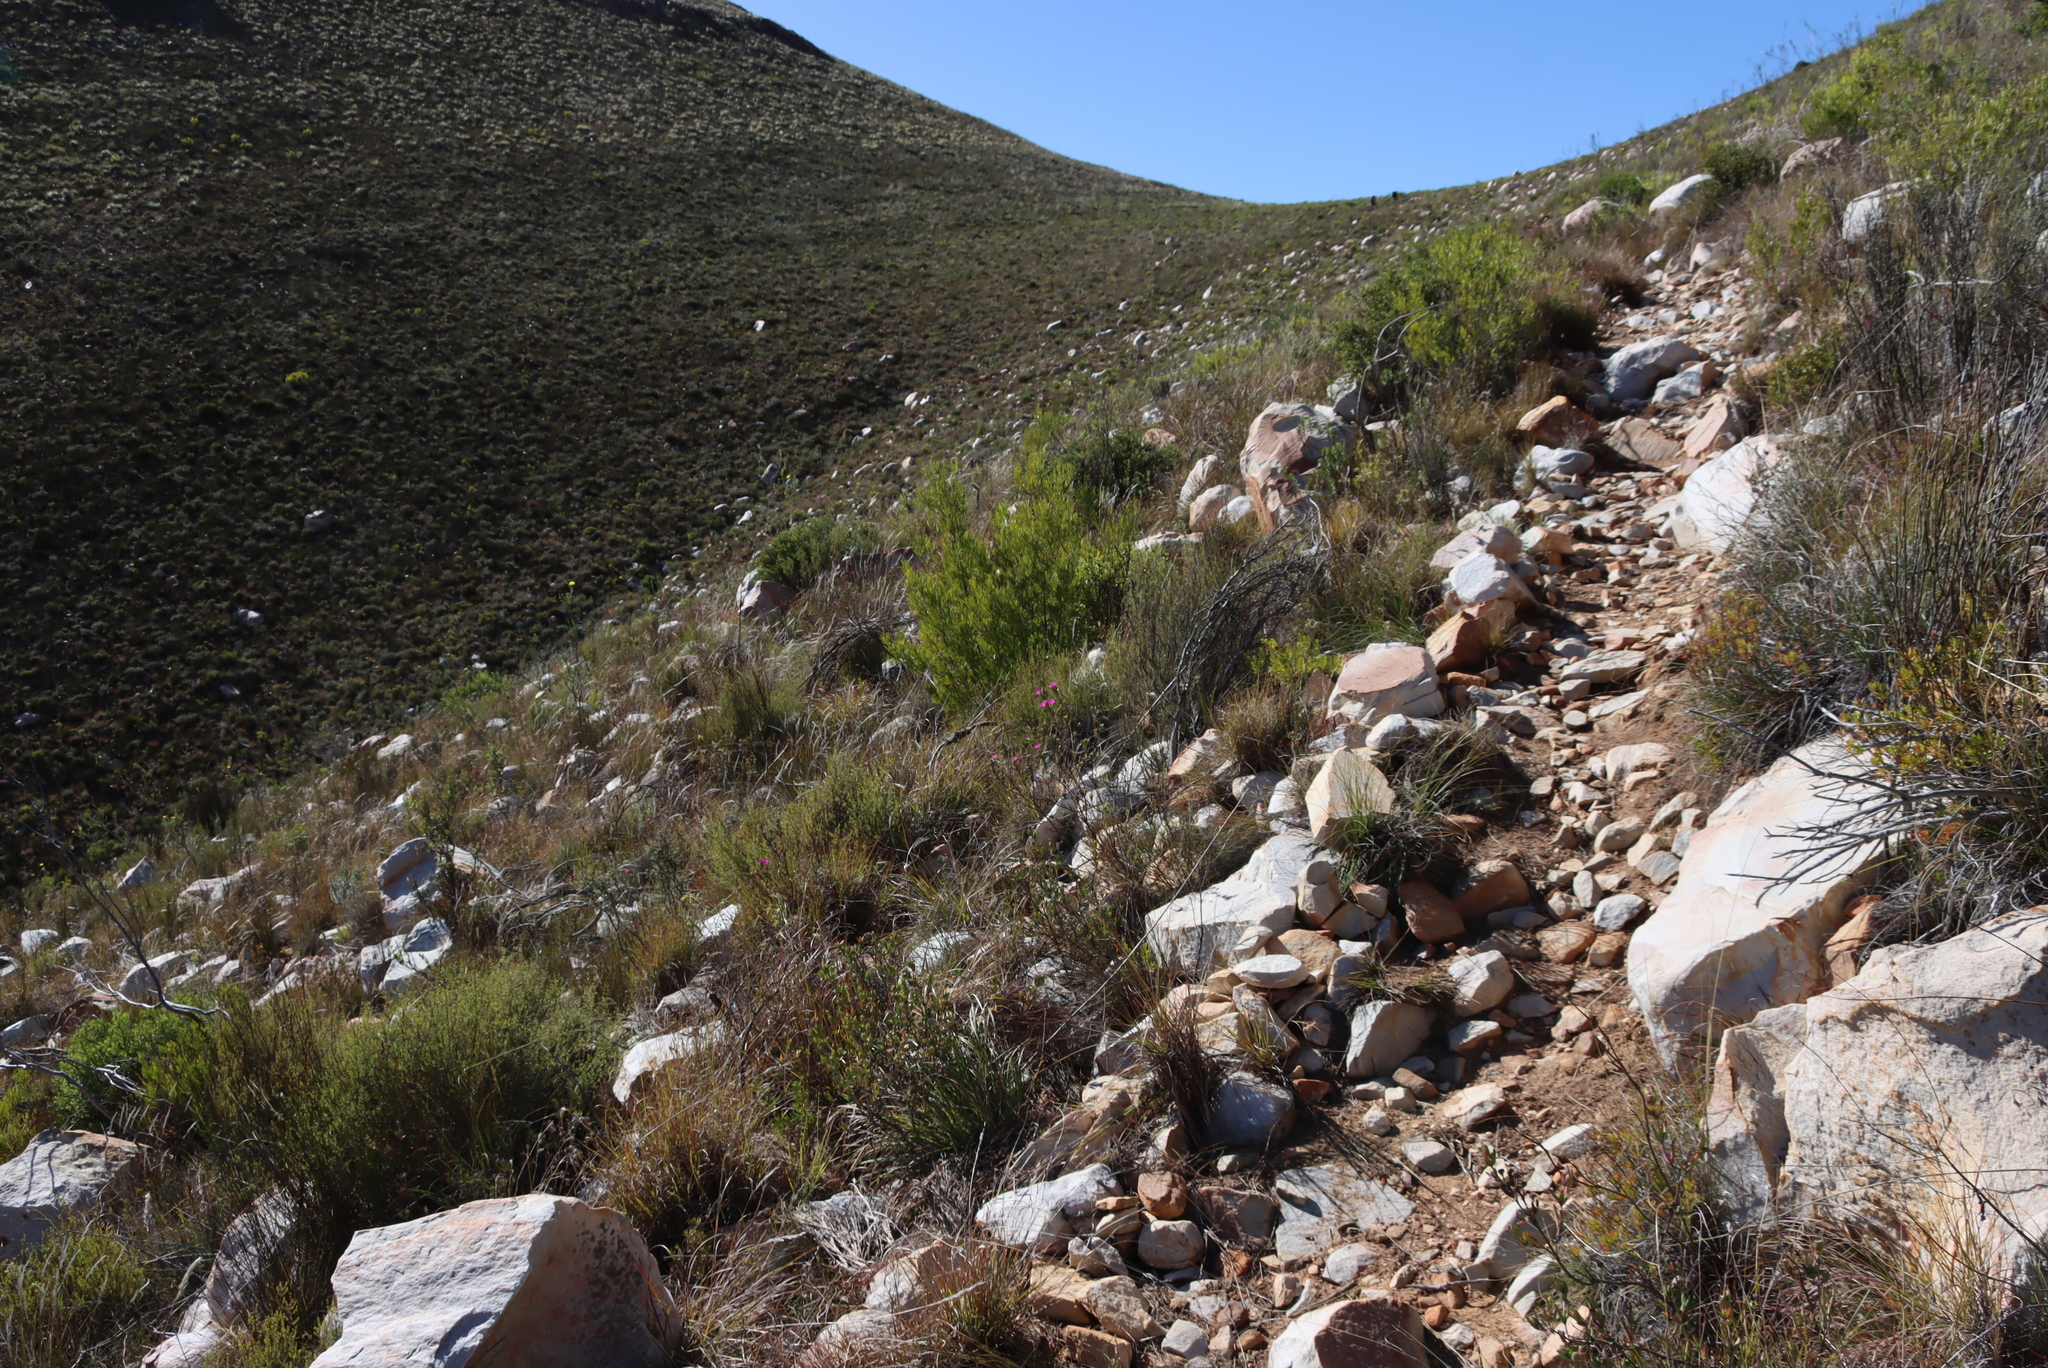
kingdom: Plantae
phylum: Tracheophyta
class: Magnoliopsida
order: Sapindales
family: Sapindaceae
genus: Dodonaea
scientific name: Dodonaea viscosa
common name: Hopbush
